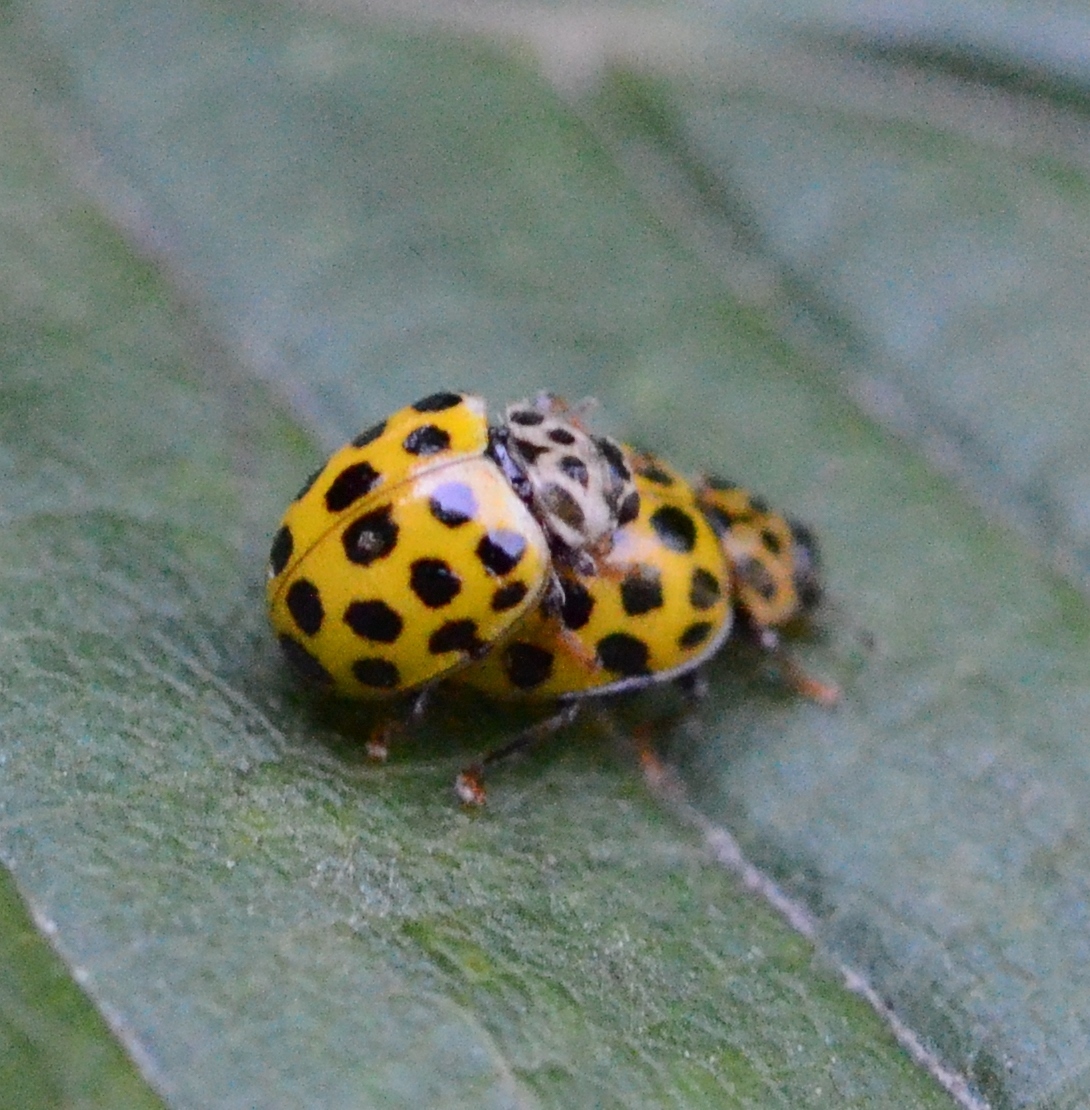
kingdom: Animalia
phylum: Arthropoda
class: Insecta
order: Coleoptera
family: Coccinellidae
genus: Psyllobora
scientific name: Psyllobora vigintiduopunctata
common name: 22-spot ladybird
